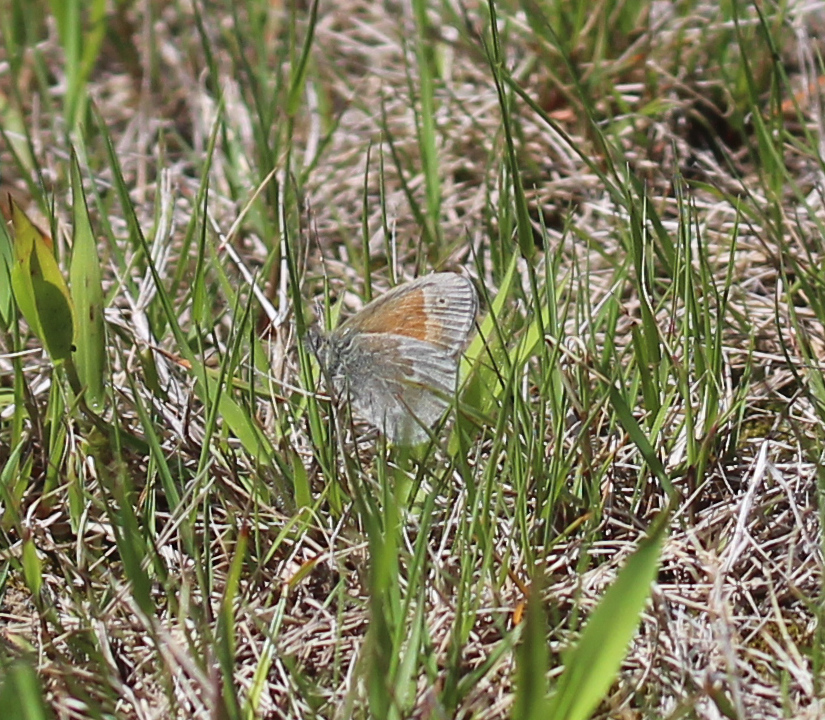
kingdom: Animalia
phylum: Arthropoda
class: Insecta
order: Lepidoptera
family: Nymphalidae
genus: Coenonympha
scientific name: Coenonympha california
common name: Common ringlet
